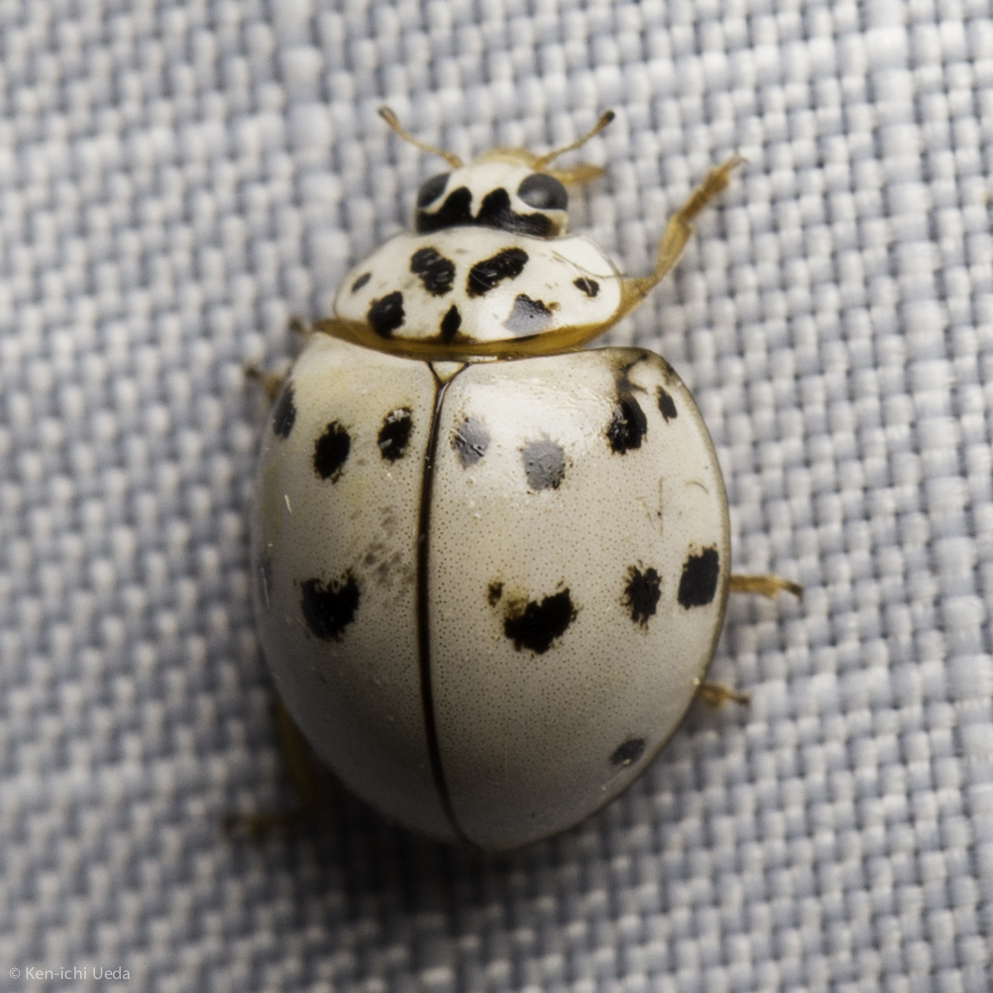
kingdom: Animalia
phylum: Arthropoda
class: Insecta
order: Coleoptera
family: Coccinellidae
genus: Olla
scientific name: Olla v-nigrum
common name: Ashy gray lady beetle
